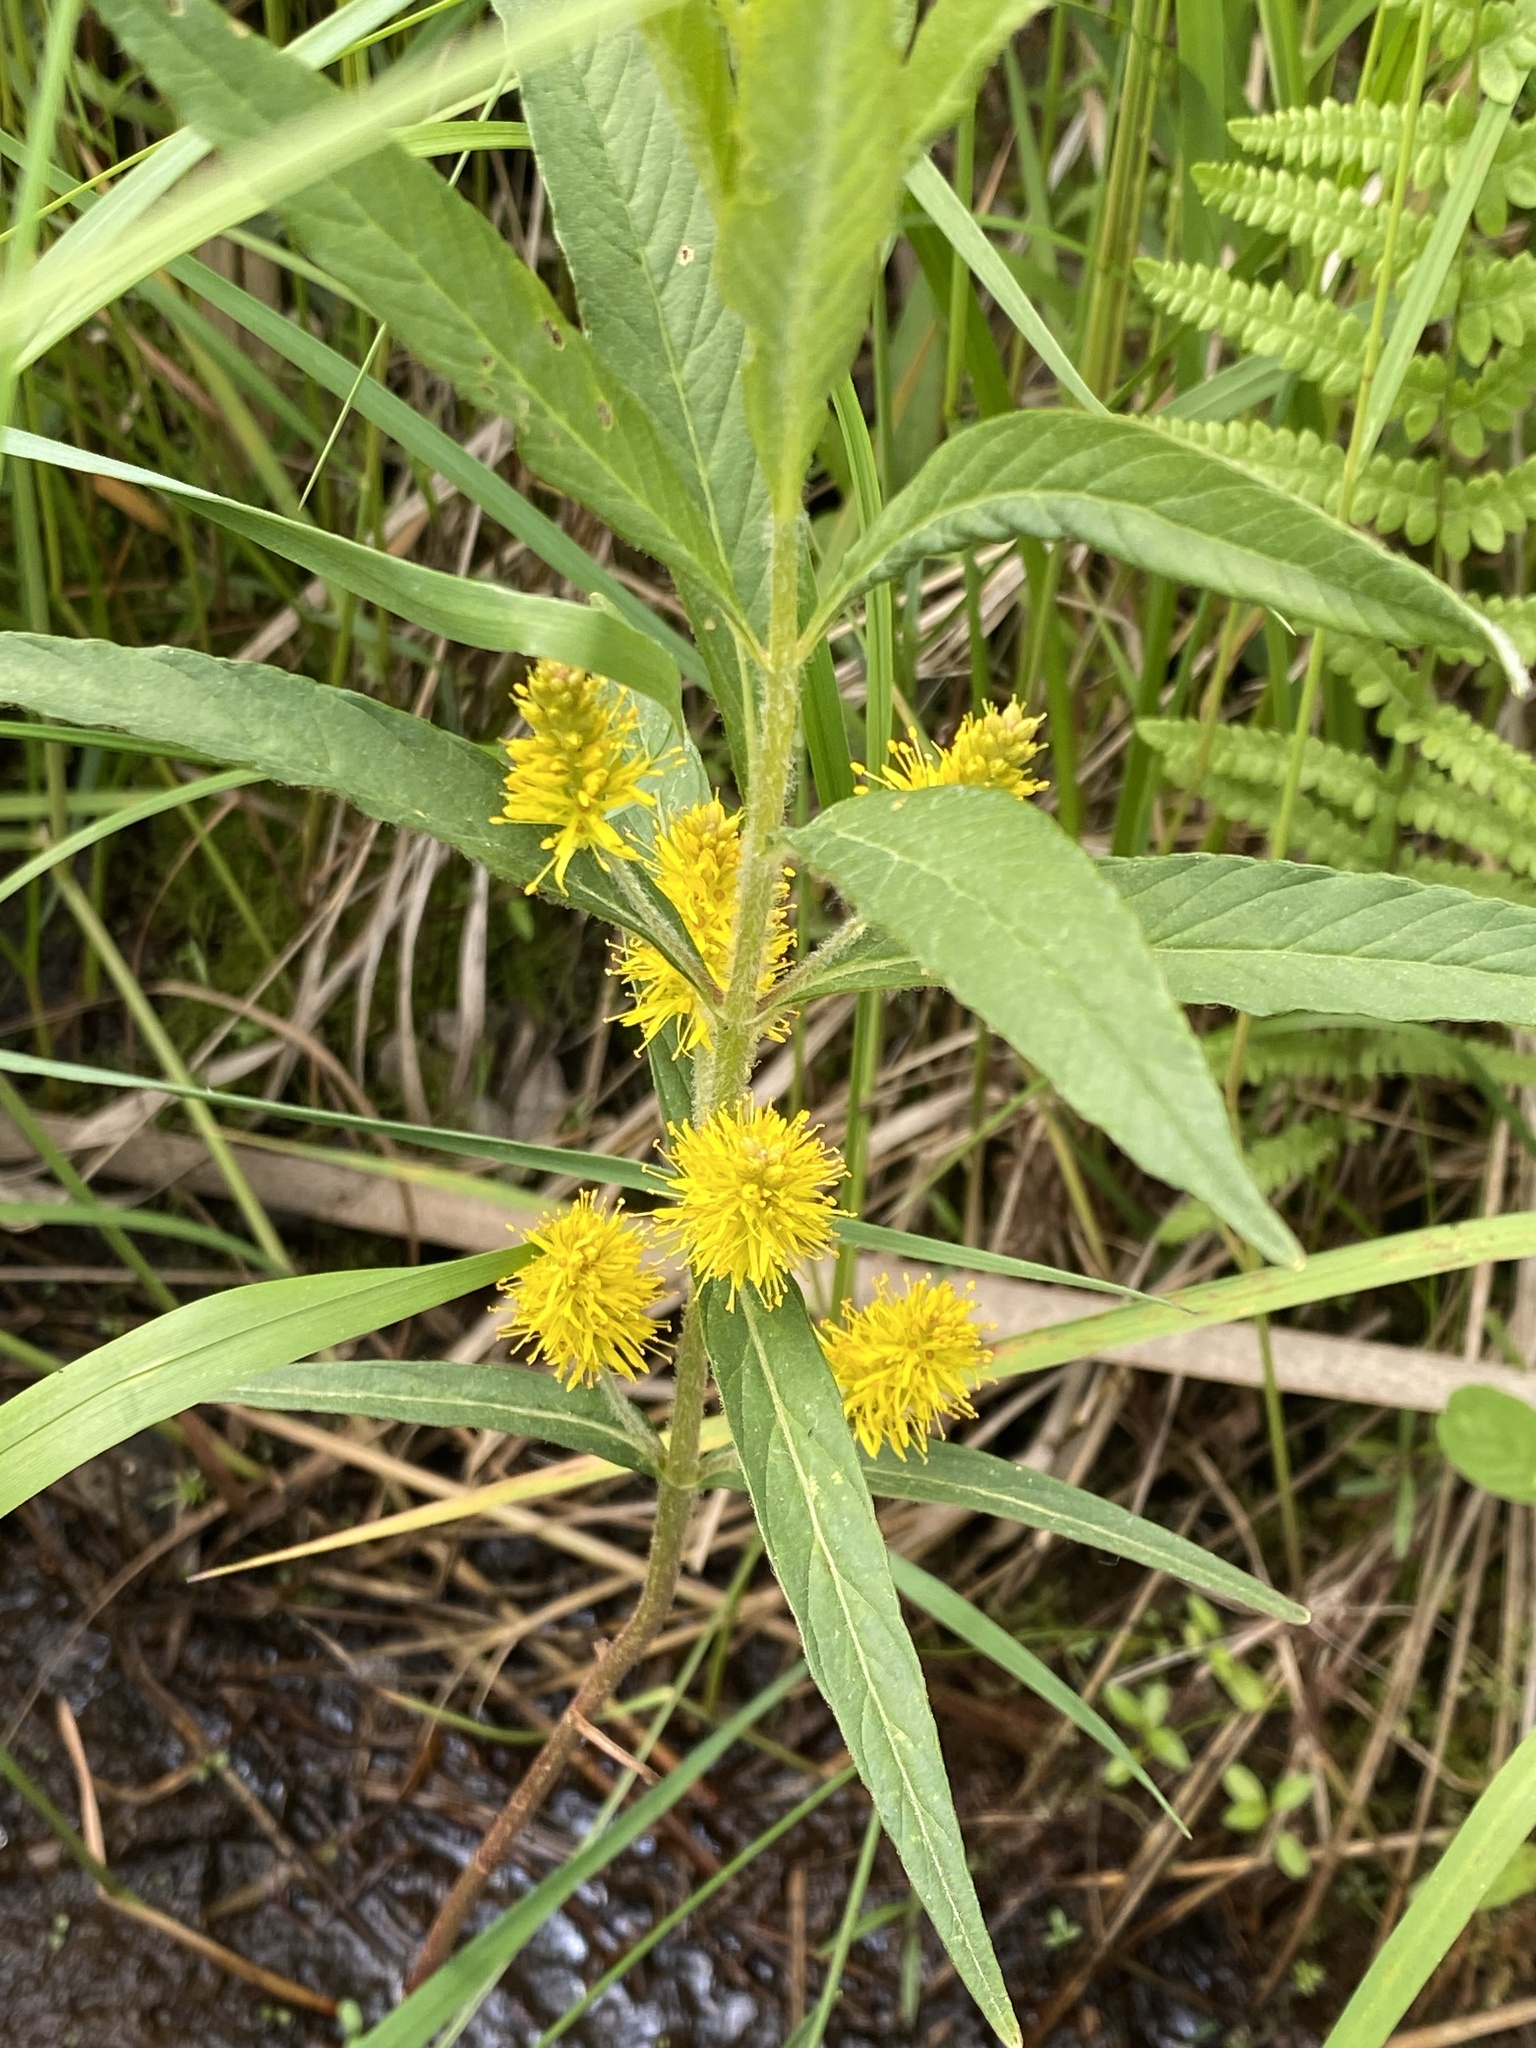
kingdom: Plantae
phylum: Tracheophyta
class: Magnoliopsida
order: Ericales
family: Primulaceae
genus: Lysimachia
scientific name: Lysimachia thyrsiflora
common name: Tufted loosestrife
